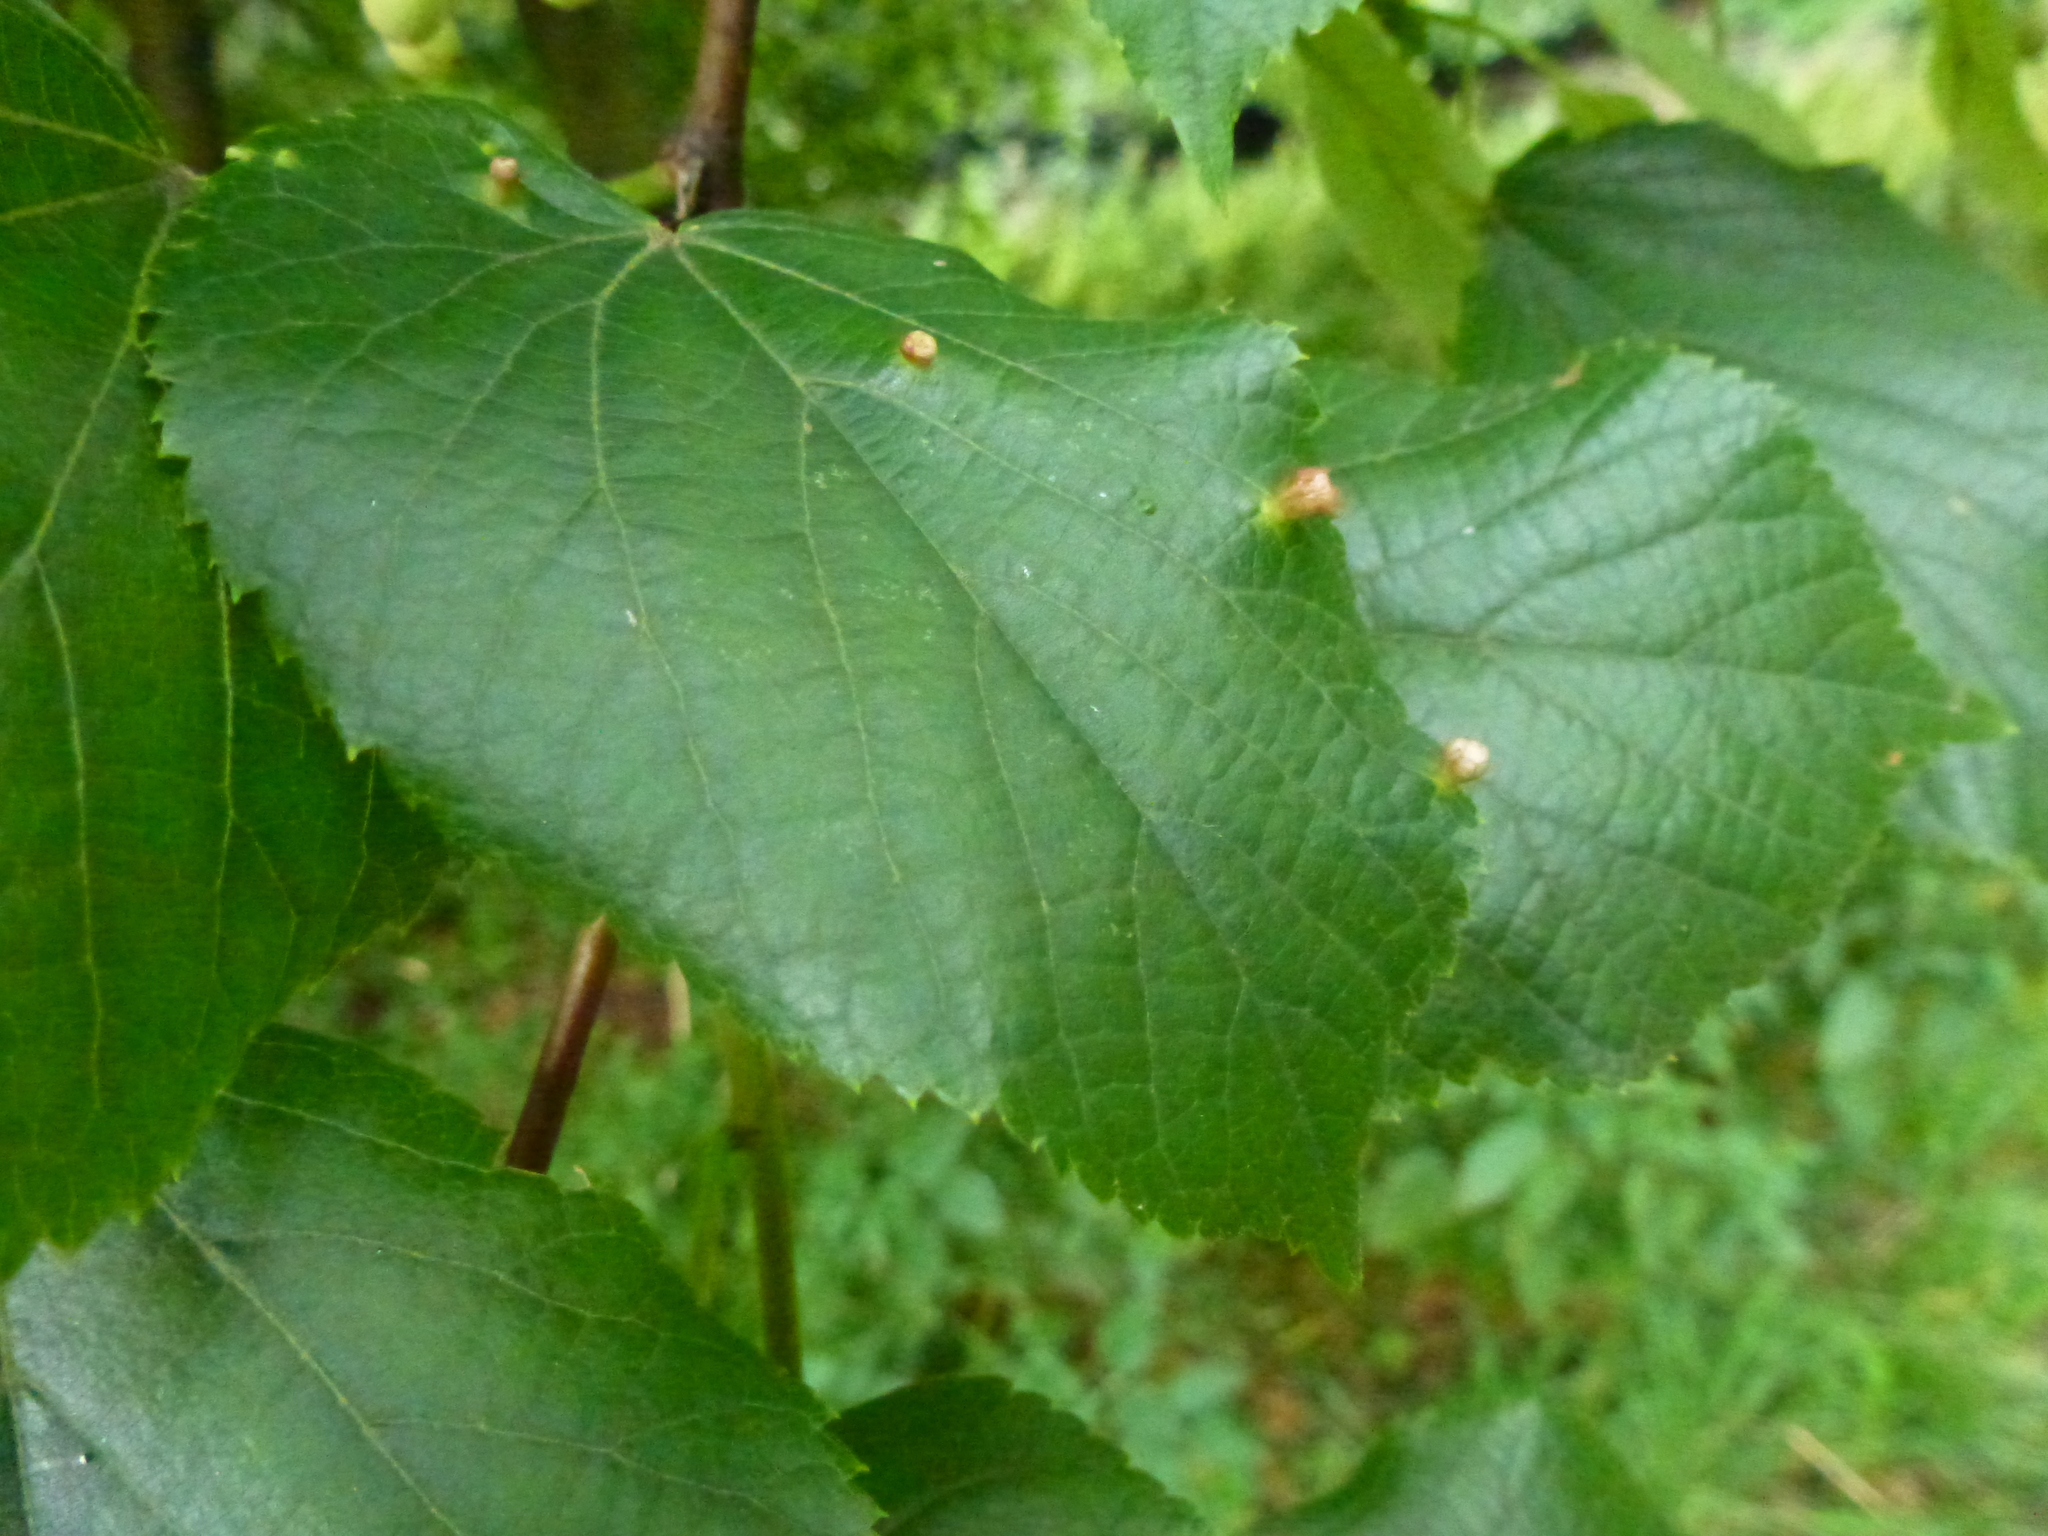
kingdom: Animalia
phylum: Arthropoda
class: Arachnida
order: Trombidiformes
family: Eriophyidae
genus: Eriophyes
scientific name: Eriophyes tiliae
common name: Red nail gall mite
